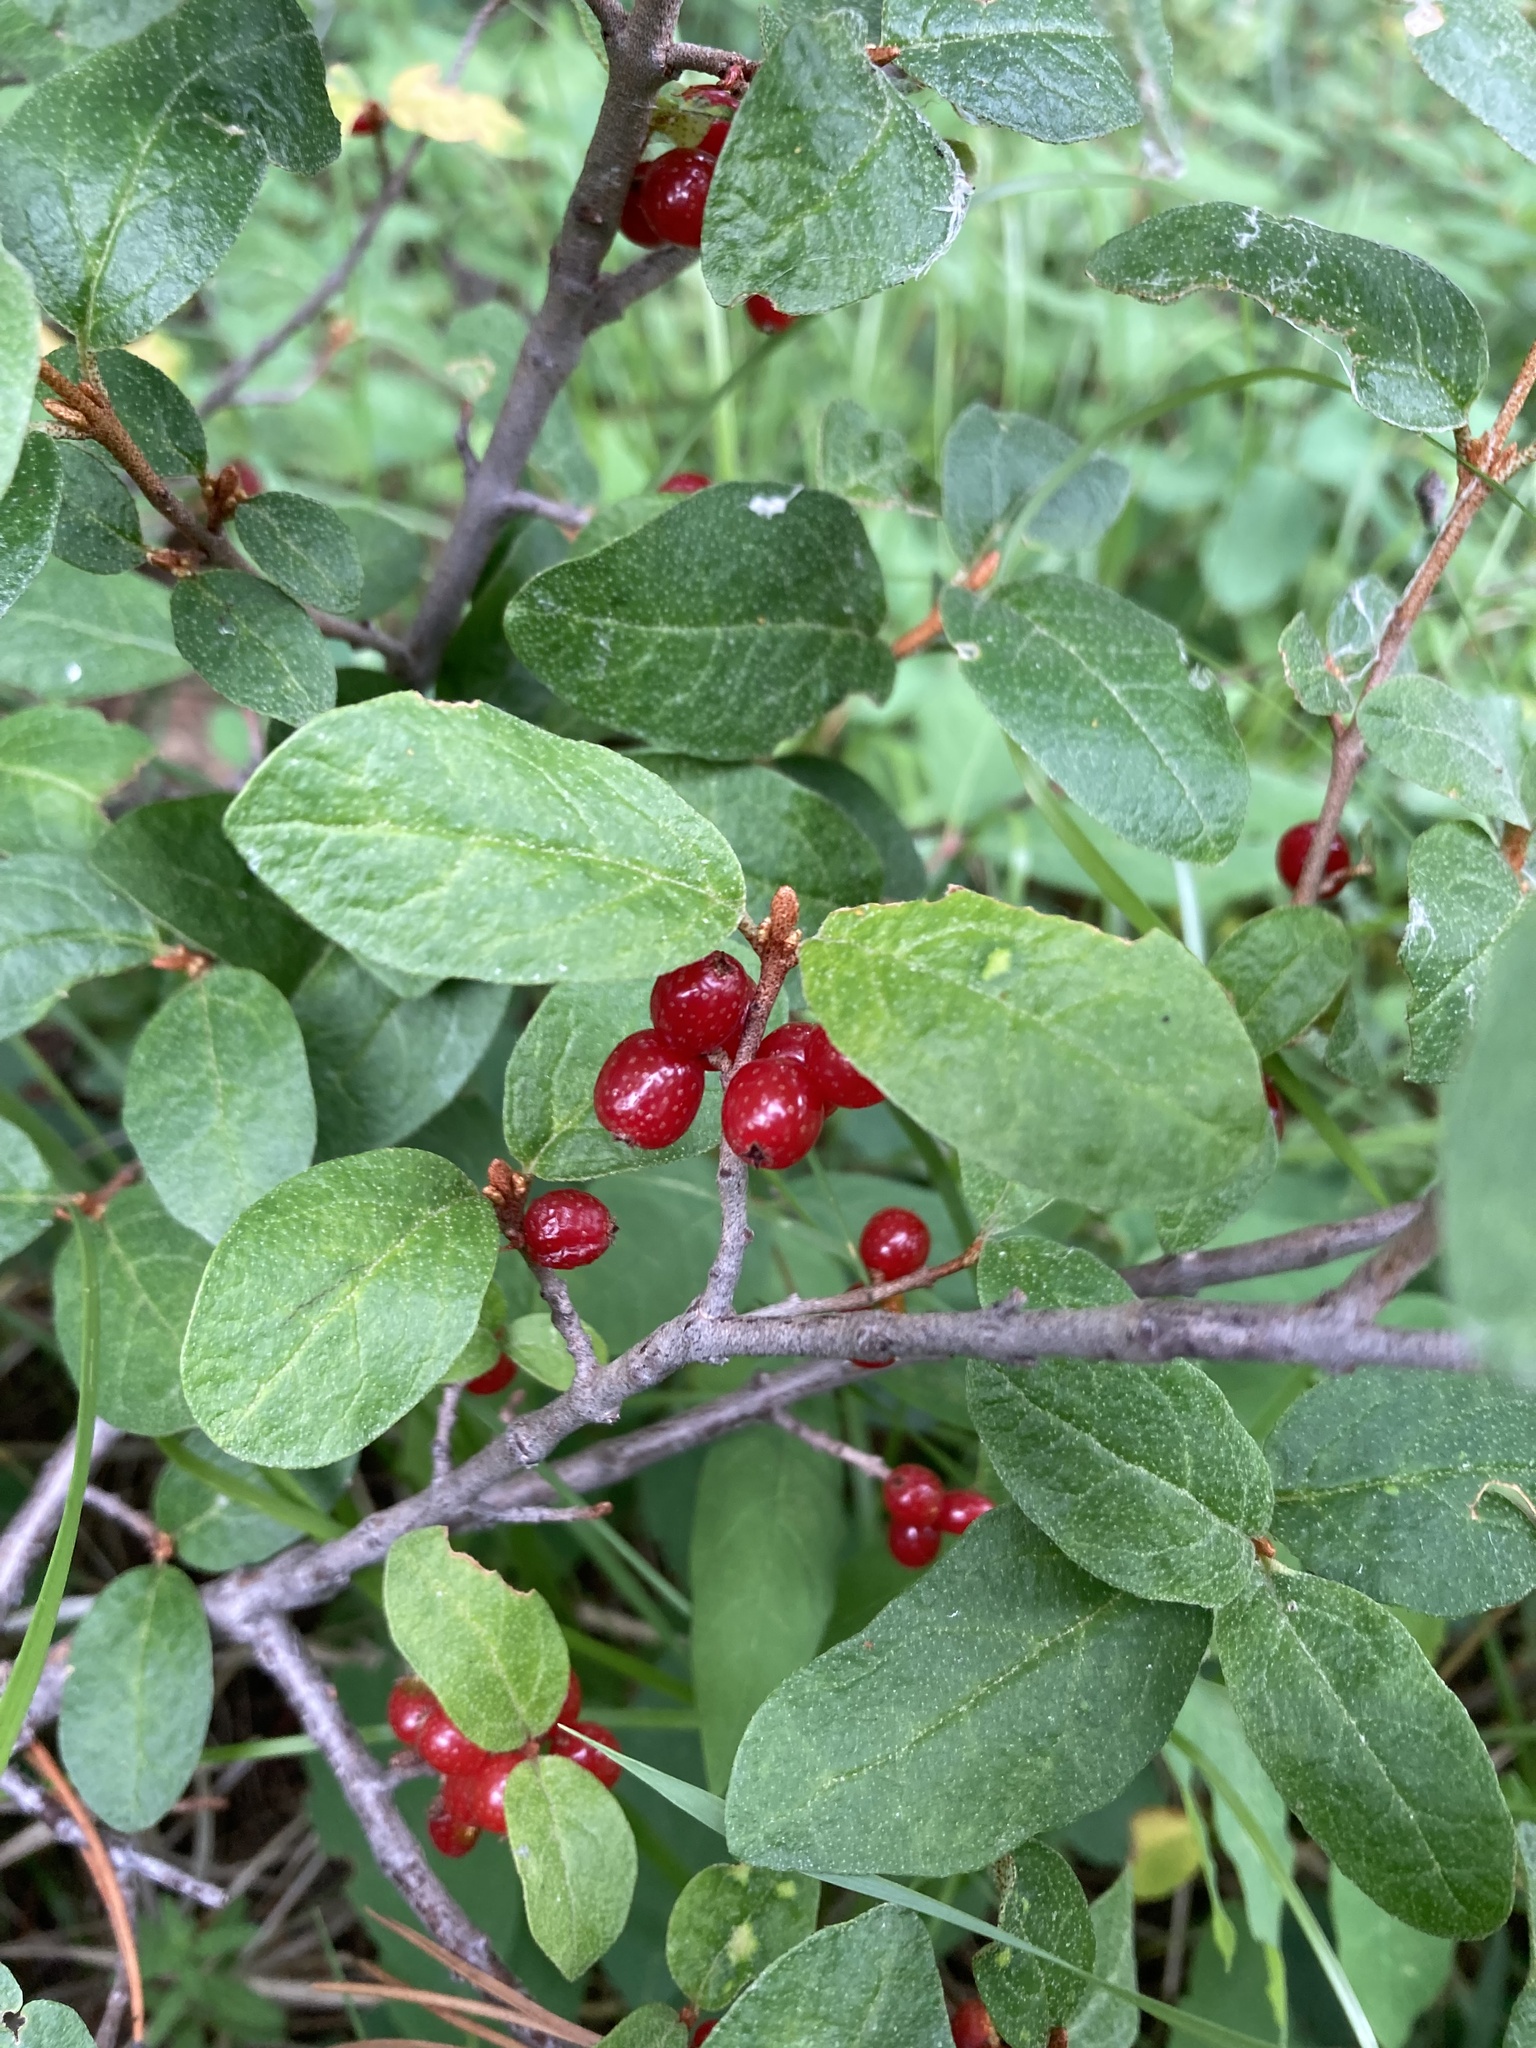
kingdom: Plantae
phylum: Tracheophyta
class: Magnoliopsida
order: Rosales
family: Elaeagnaceae
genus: Shepherdia
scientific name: Shepherdia canadensis
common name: Soapberry
